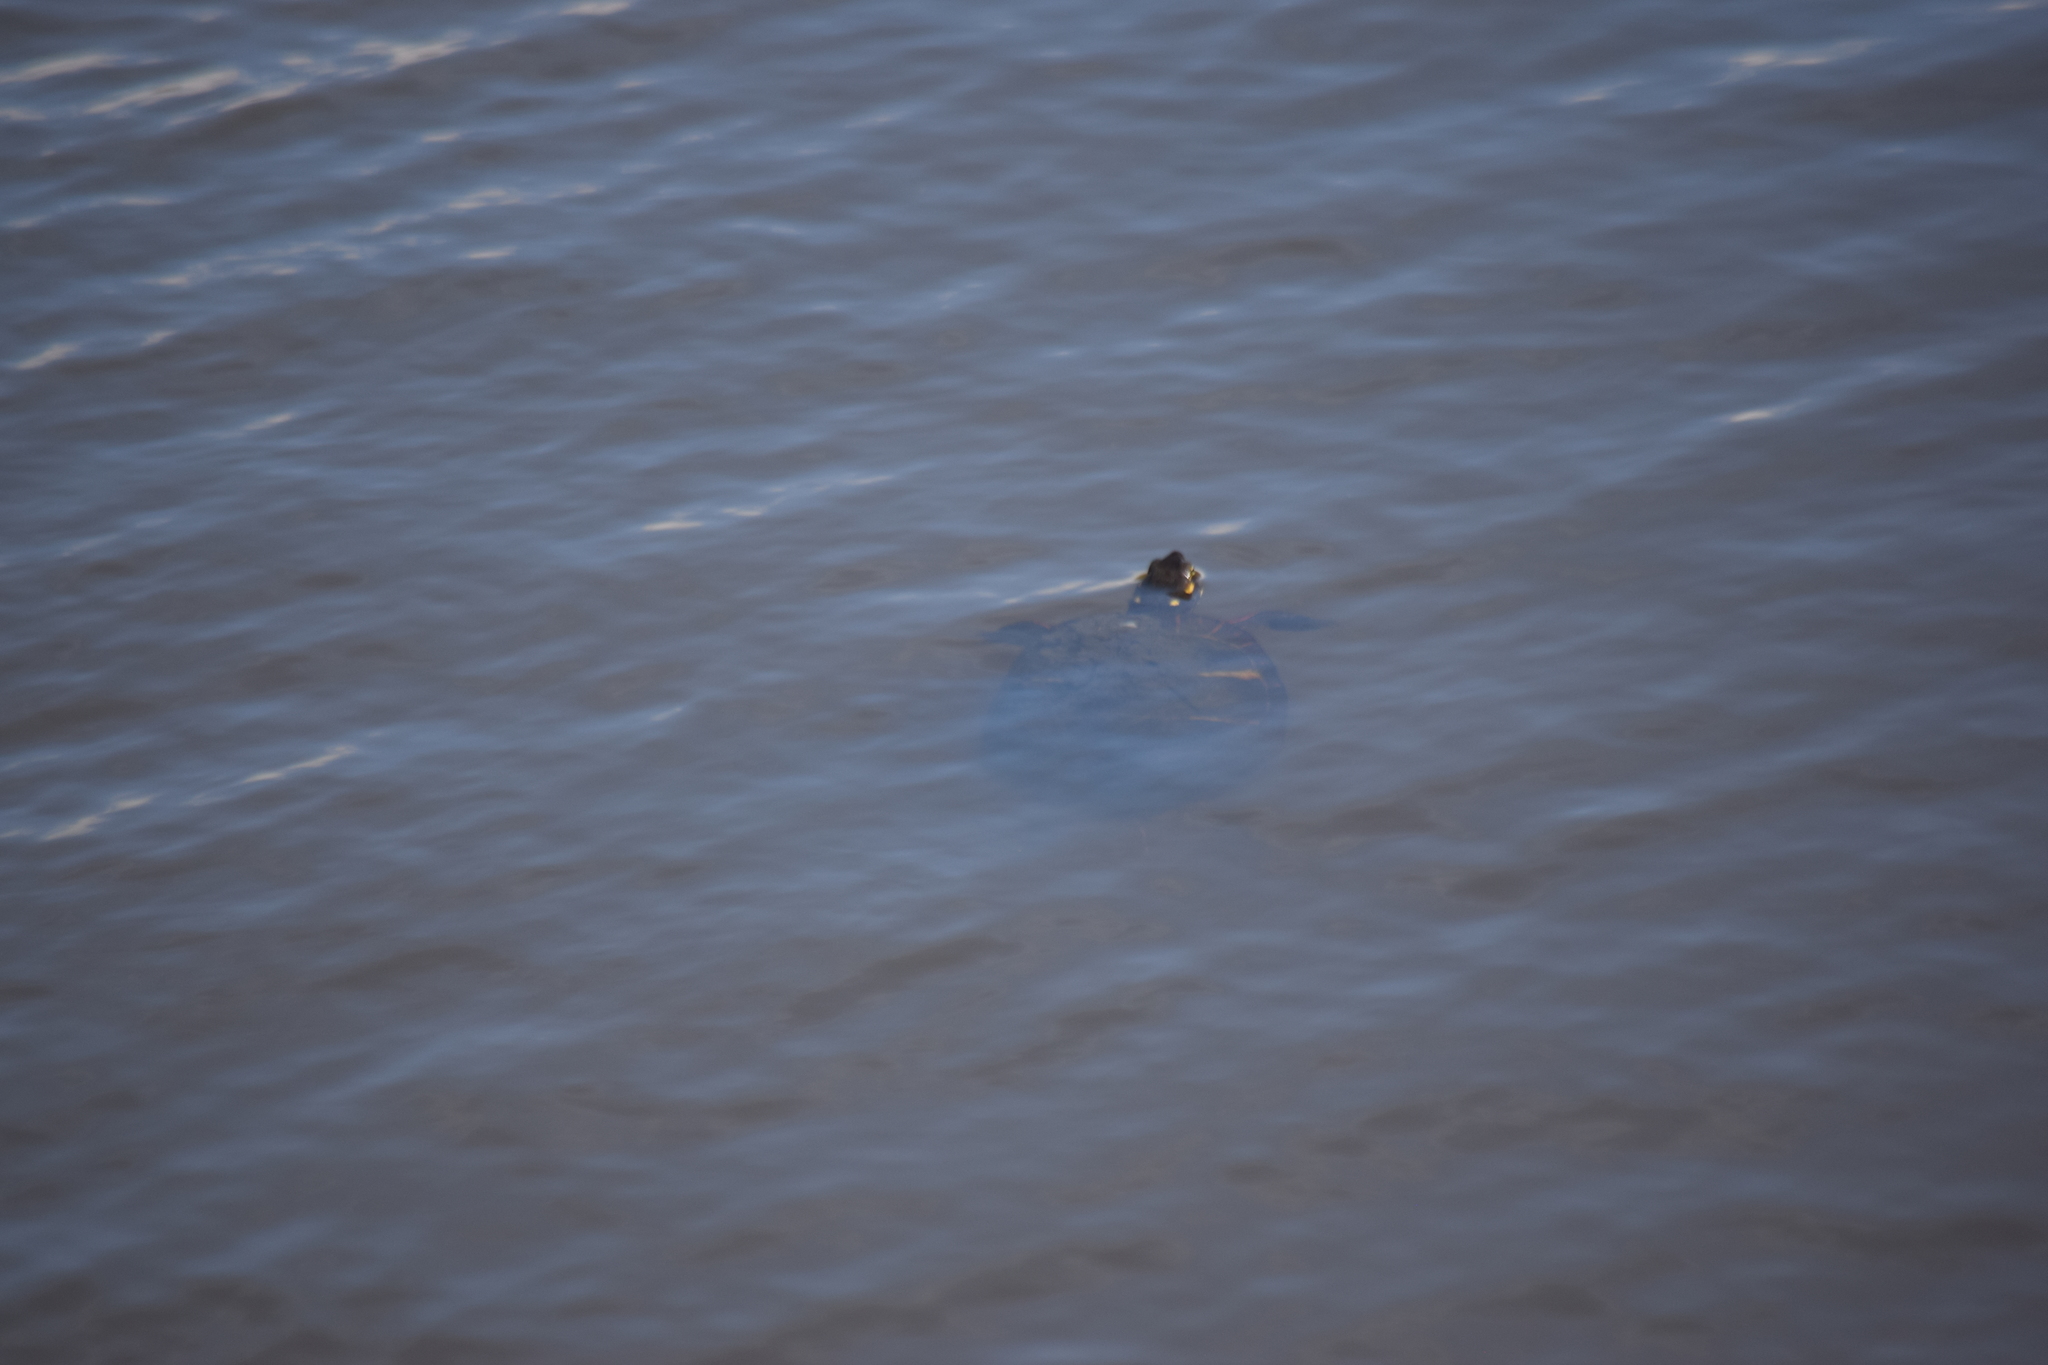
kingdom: Animalia
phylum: Chordata
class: Testudines
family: Emydidae
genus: Chrysemys
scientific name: Chrysemys picta
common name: Painted turtle
